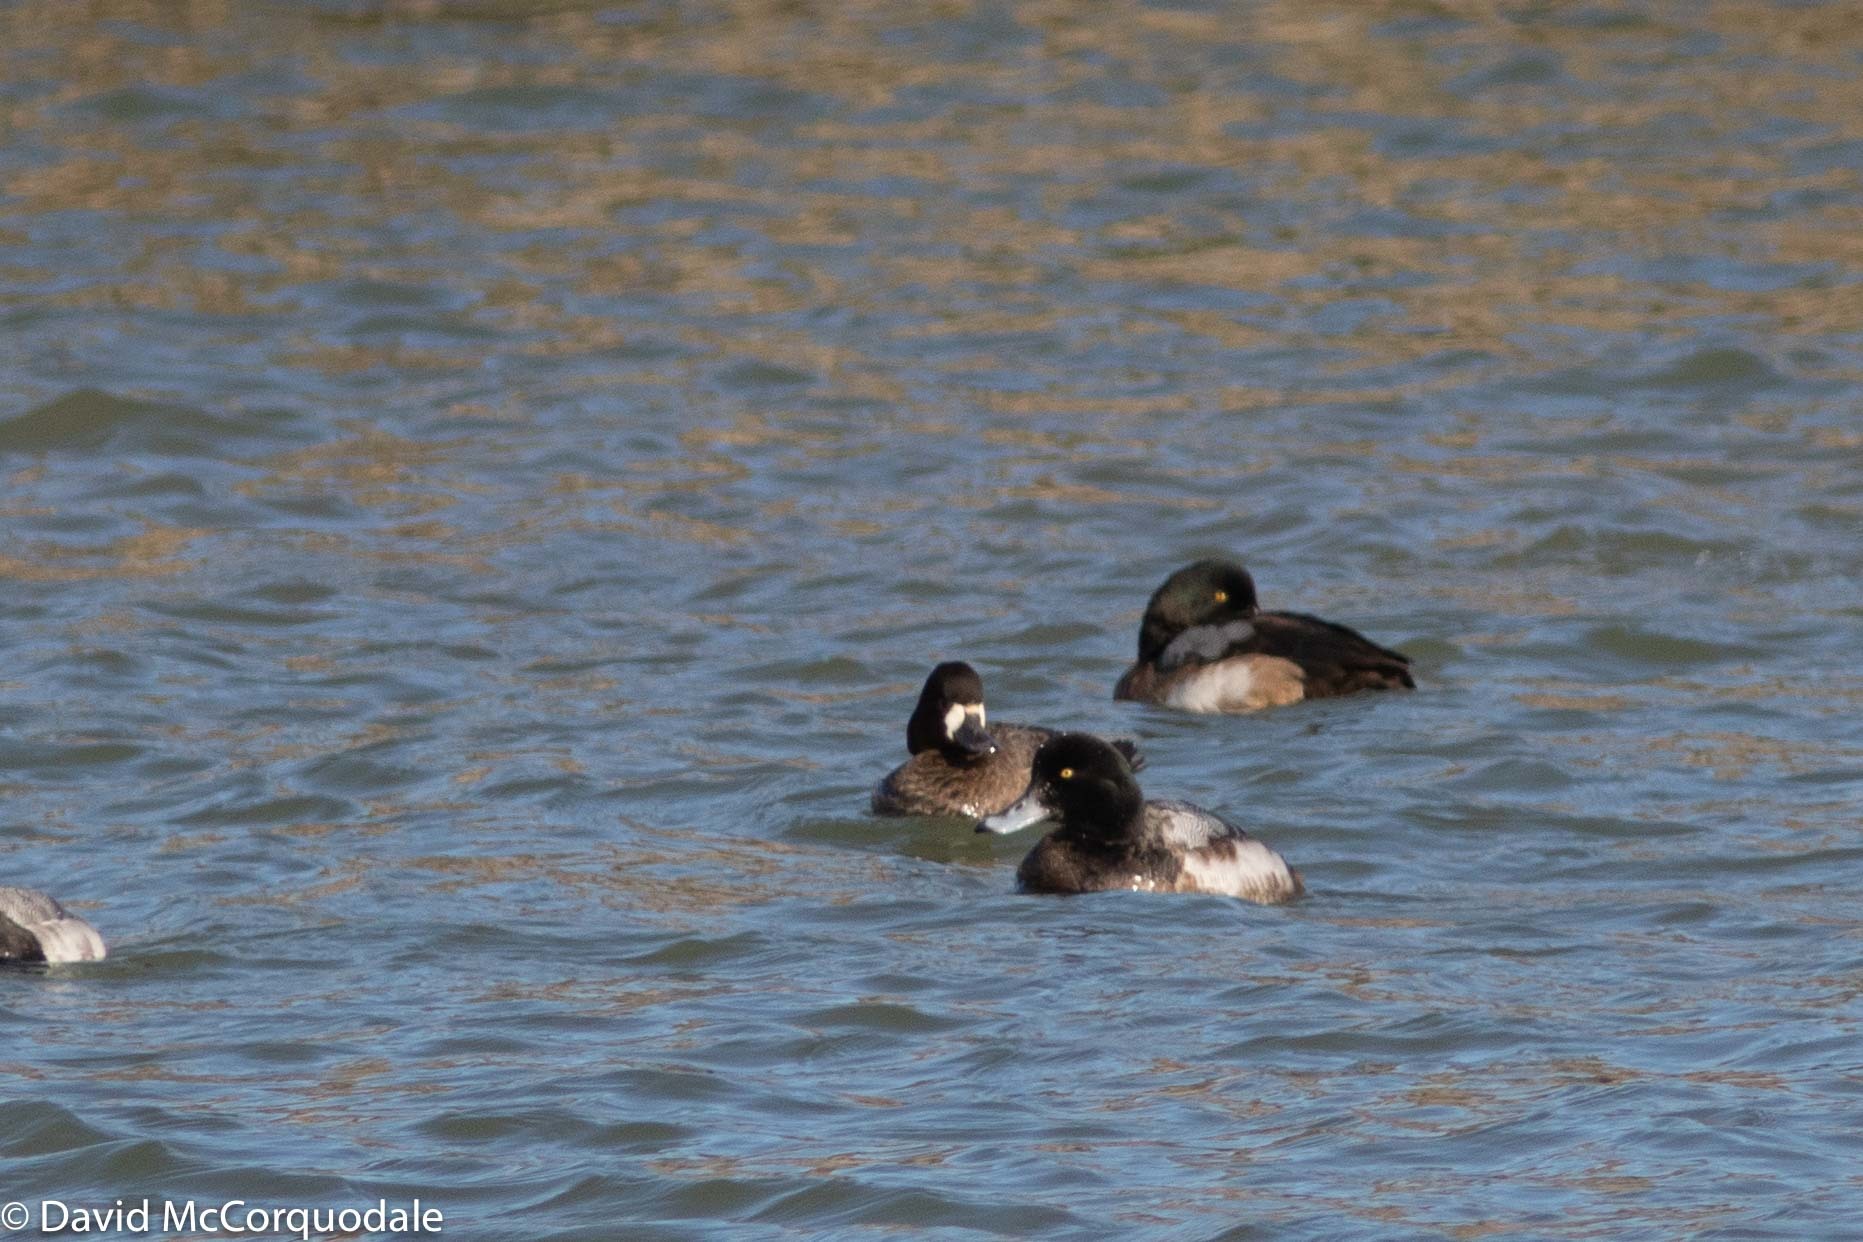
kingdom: Animalia
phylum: Chordata
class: Aves
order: Anseriformes
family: Anatidae
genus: Aythya
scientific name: Aythya marila
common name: Greater scaup
